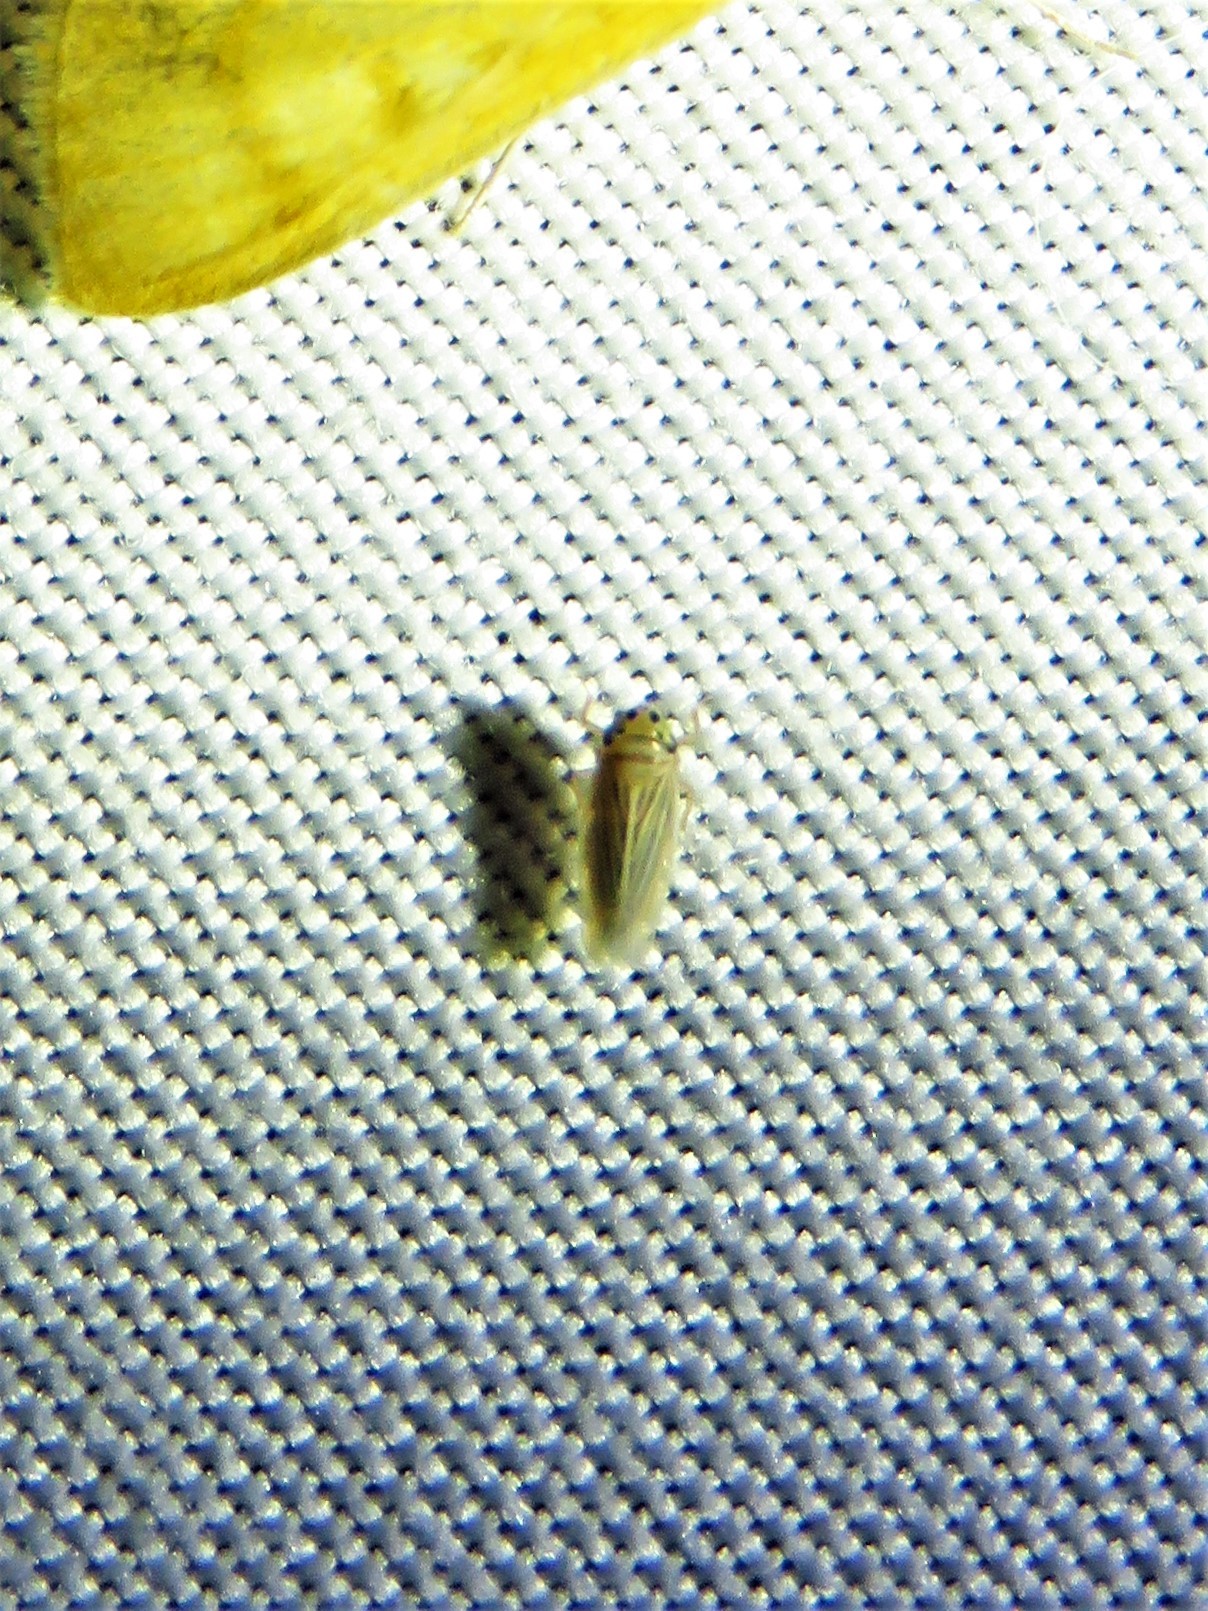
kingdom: Animalia
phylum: Arthropoda
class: Insecta
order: Hemiptera
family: Cicadellidae
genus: Graminella
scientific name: Graminella villicus
